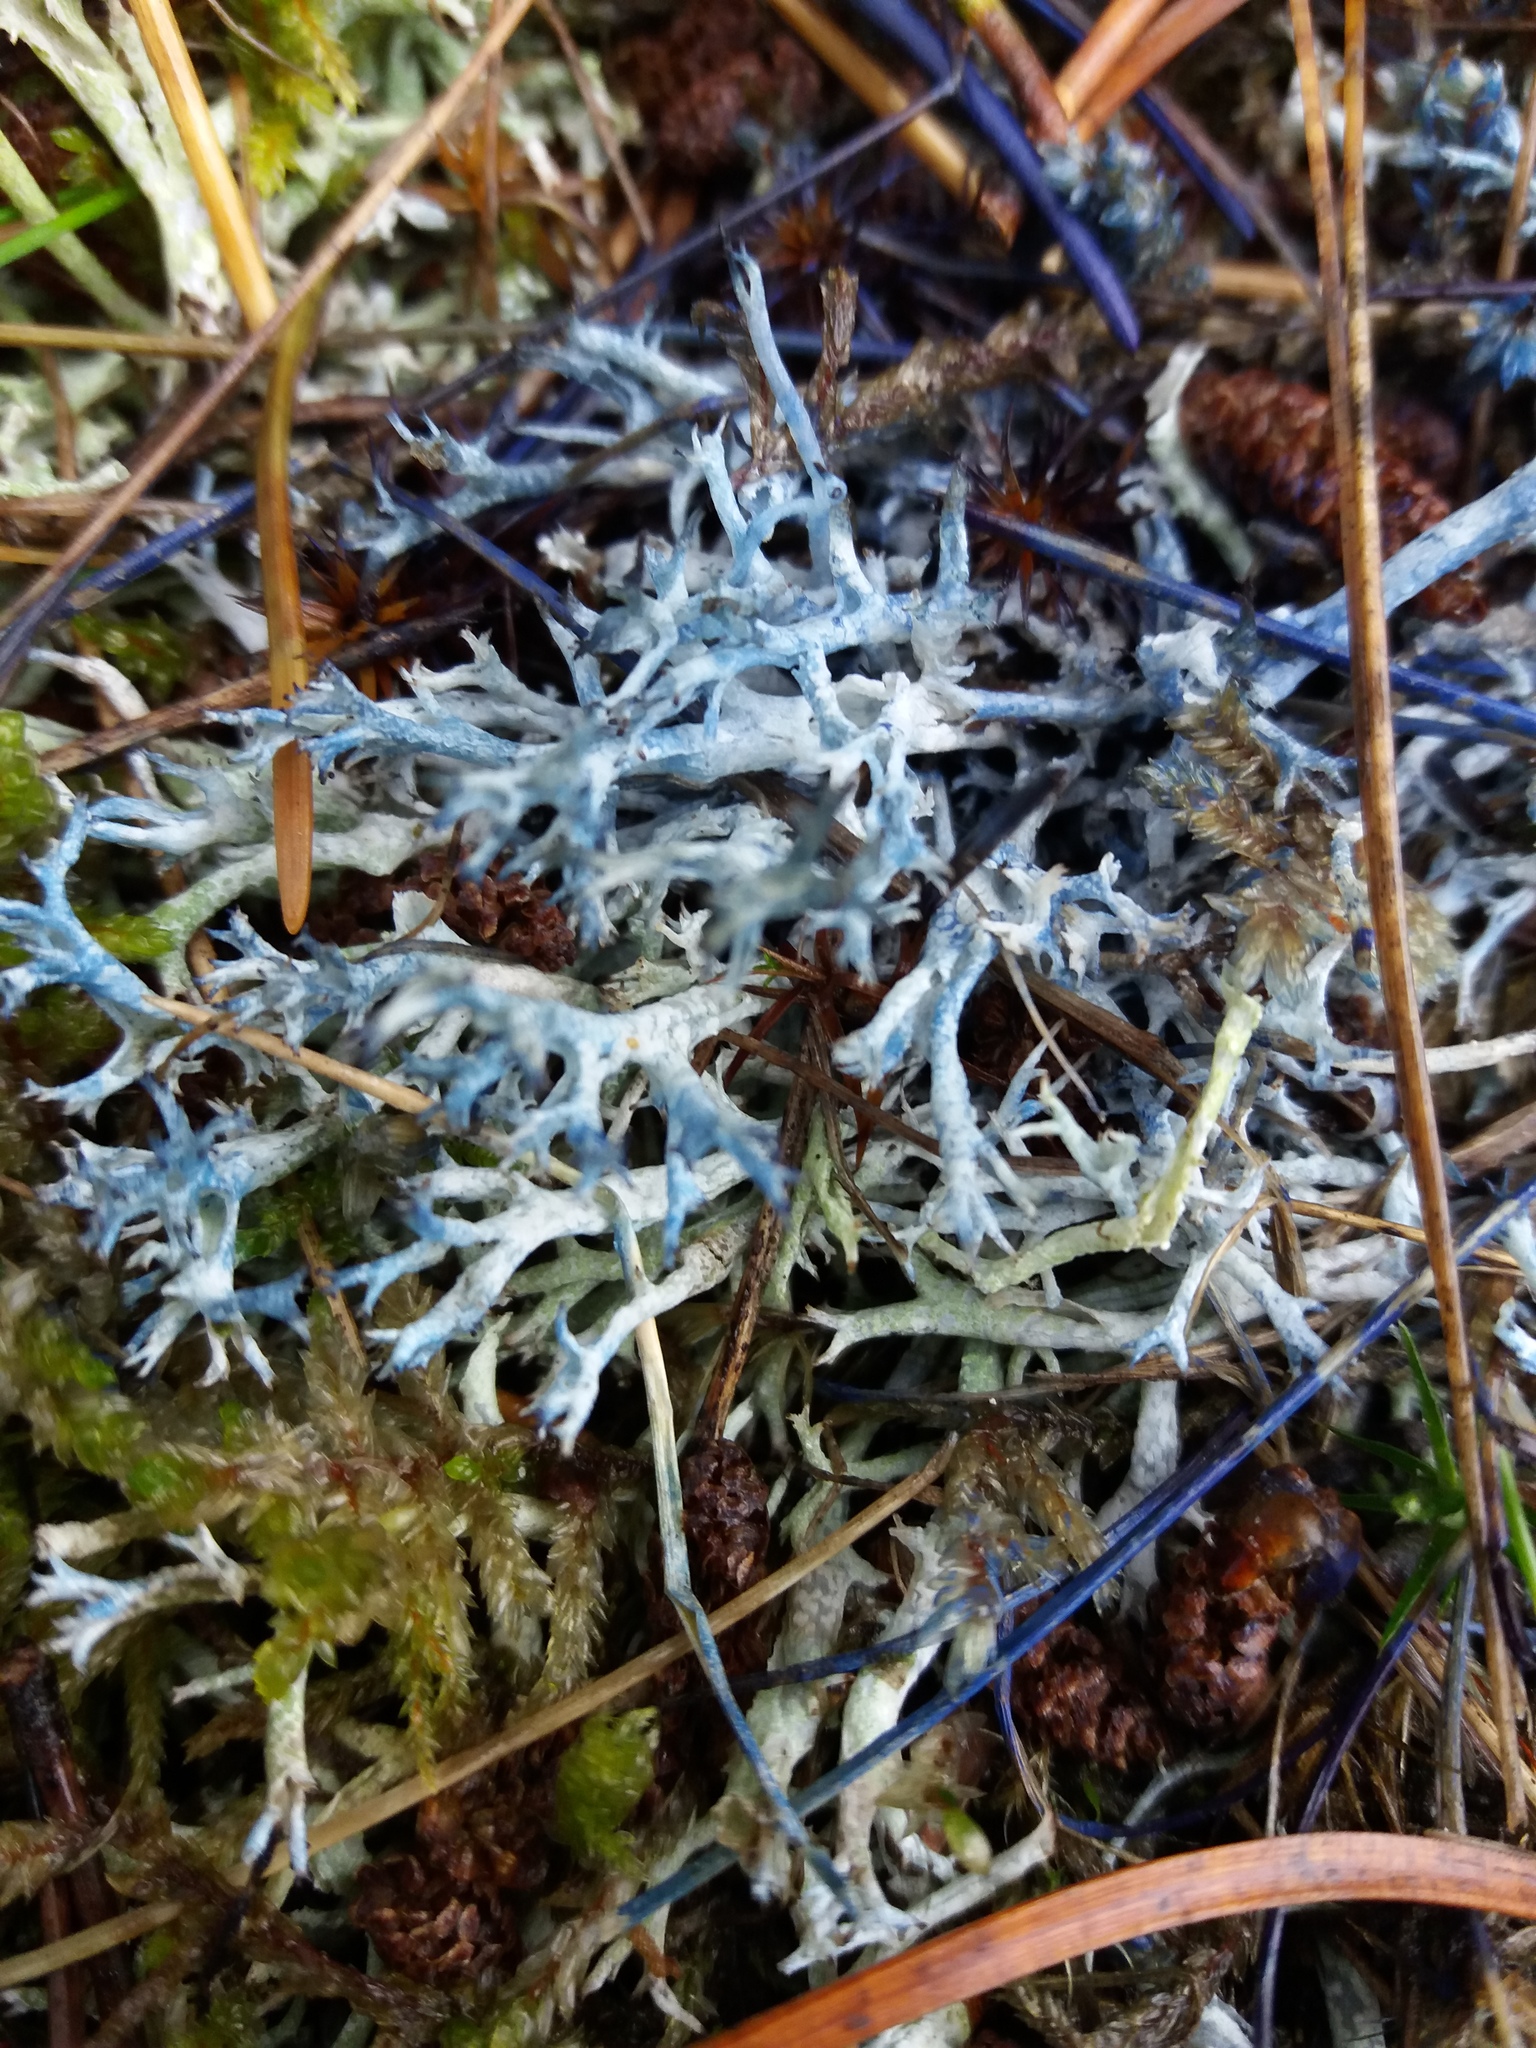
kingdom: Fungi
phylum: Ascomycota
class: Lecanoromycetes
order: Lecanorales
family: Cladoniaceae
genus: Cladonia
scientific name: Cladonia furcata
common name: Many-forked cladonia
